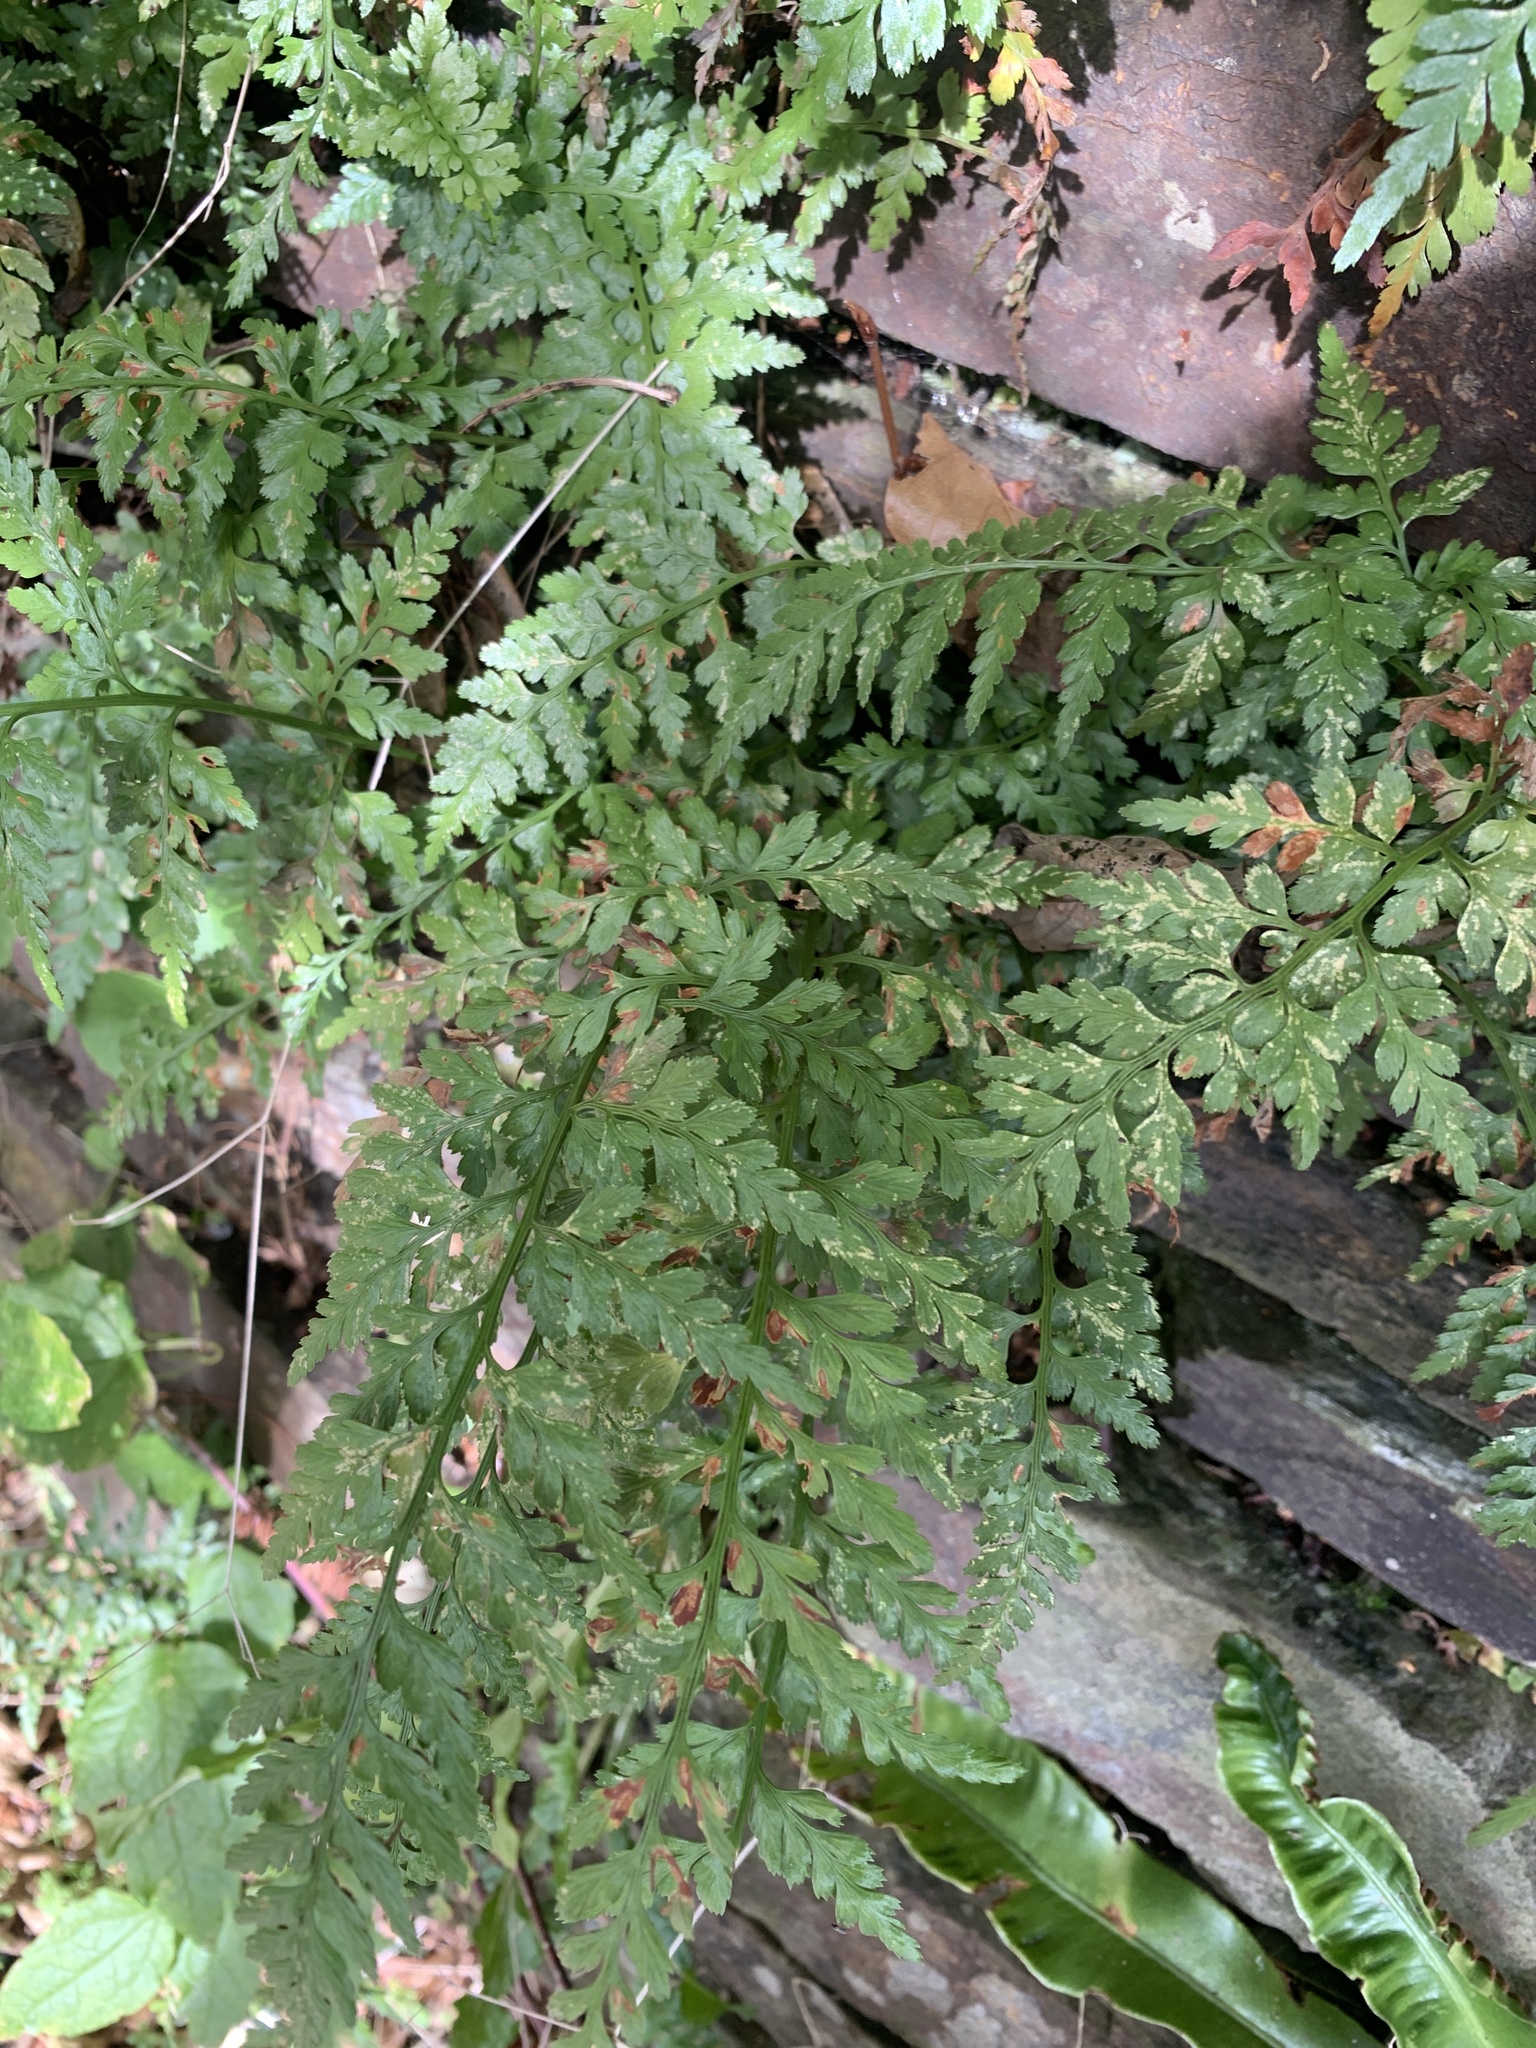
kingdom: Plantae
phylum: Tracheophyta
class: Polypodiopsida
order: Polypodiales
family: Aspleniaceae
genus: Asplenium
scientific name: Asplenium adiantum-nigrum
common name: Black spleenwort
